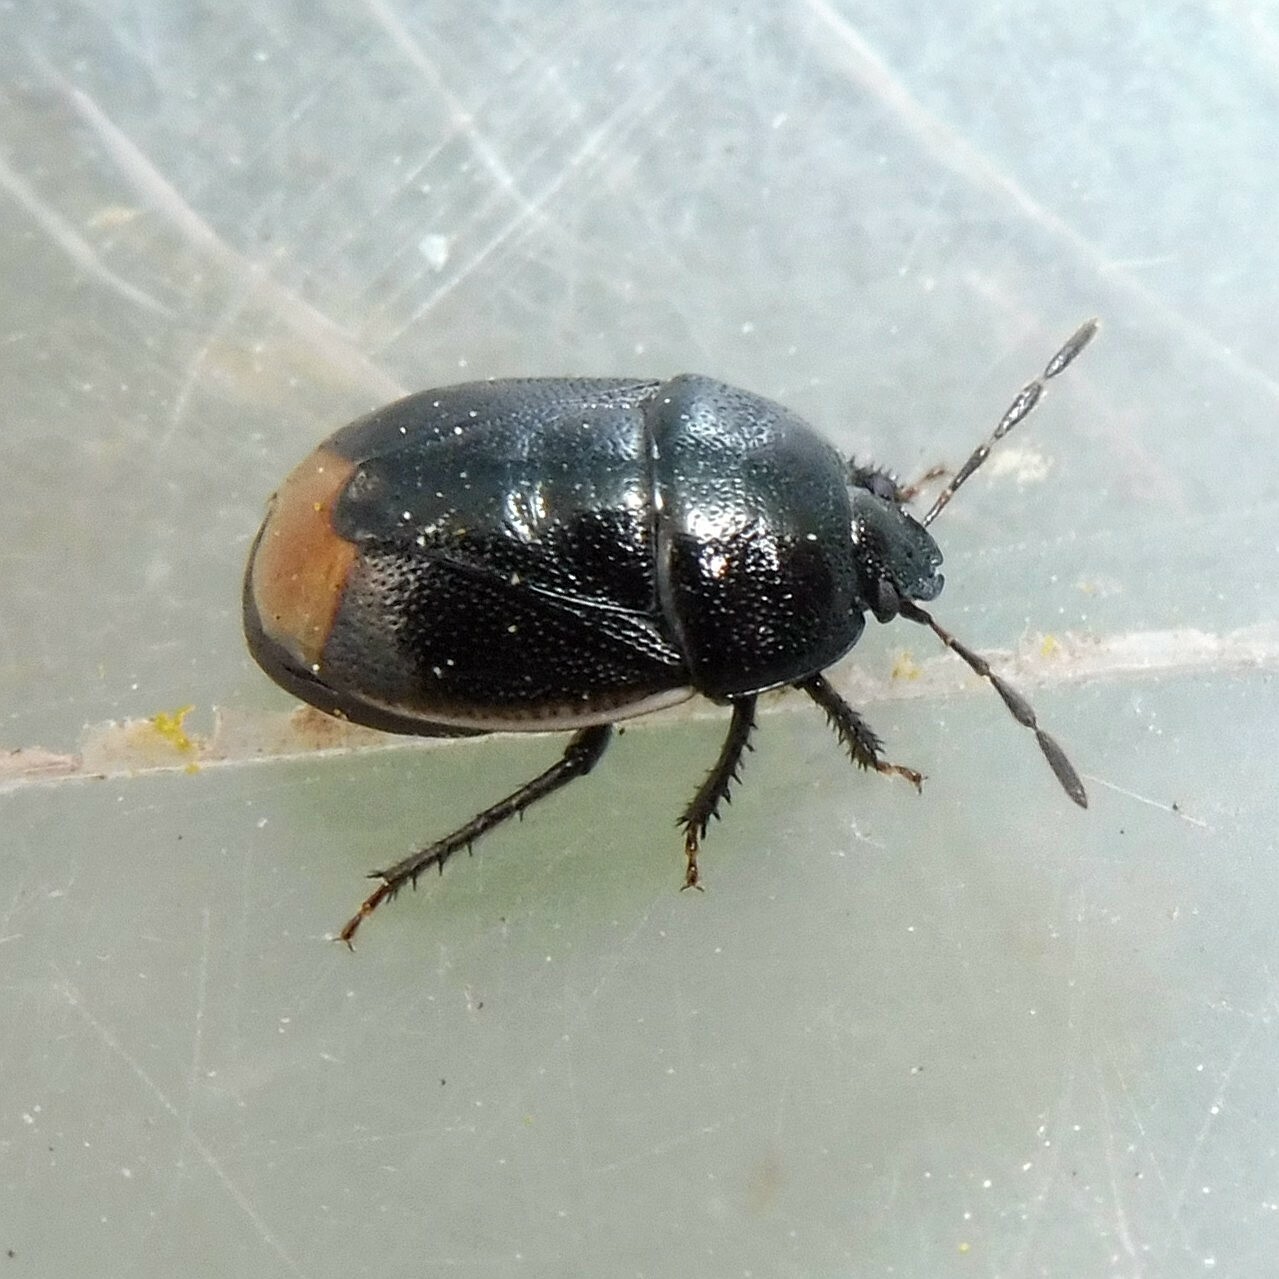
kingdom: Animalia
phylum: Arthropoda
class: Insecta
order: Hemiptera
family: Cydnidae
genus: Legnotus
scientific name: Legnotus limbosus
